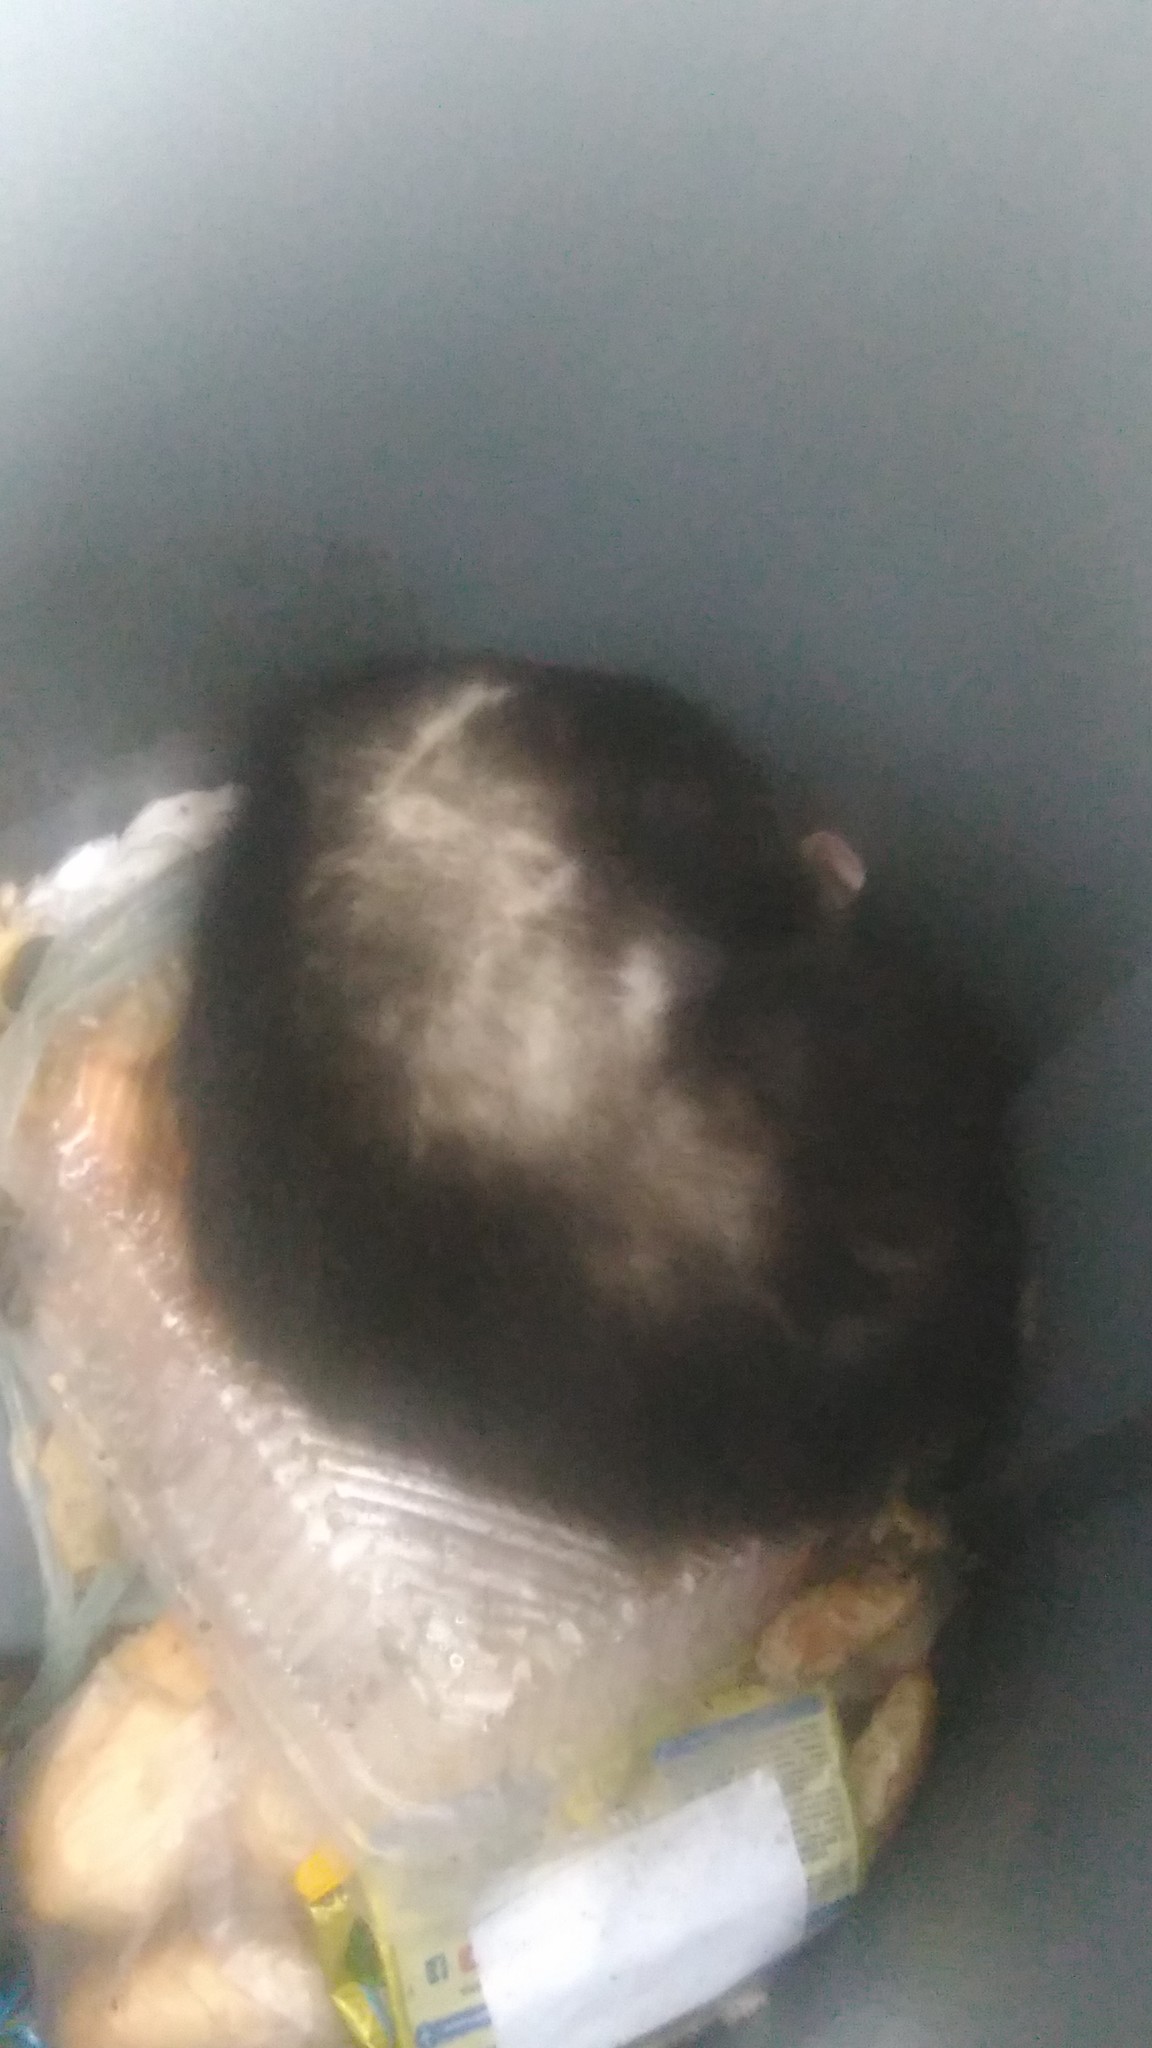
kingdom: Animalia
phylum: Chordata
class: Mammalia
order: Didelphimorphia
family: Didelphidae
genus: Didelphis
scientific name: Didelphis albiventris
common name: White-eared opossum
